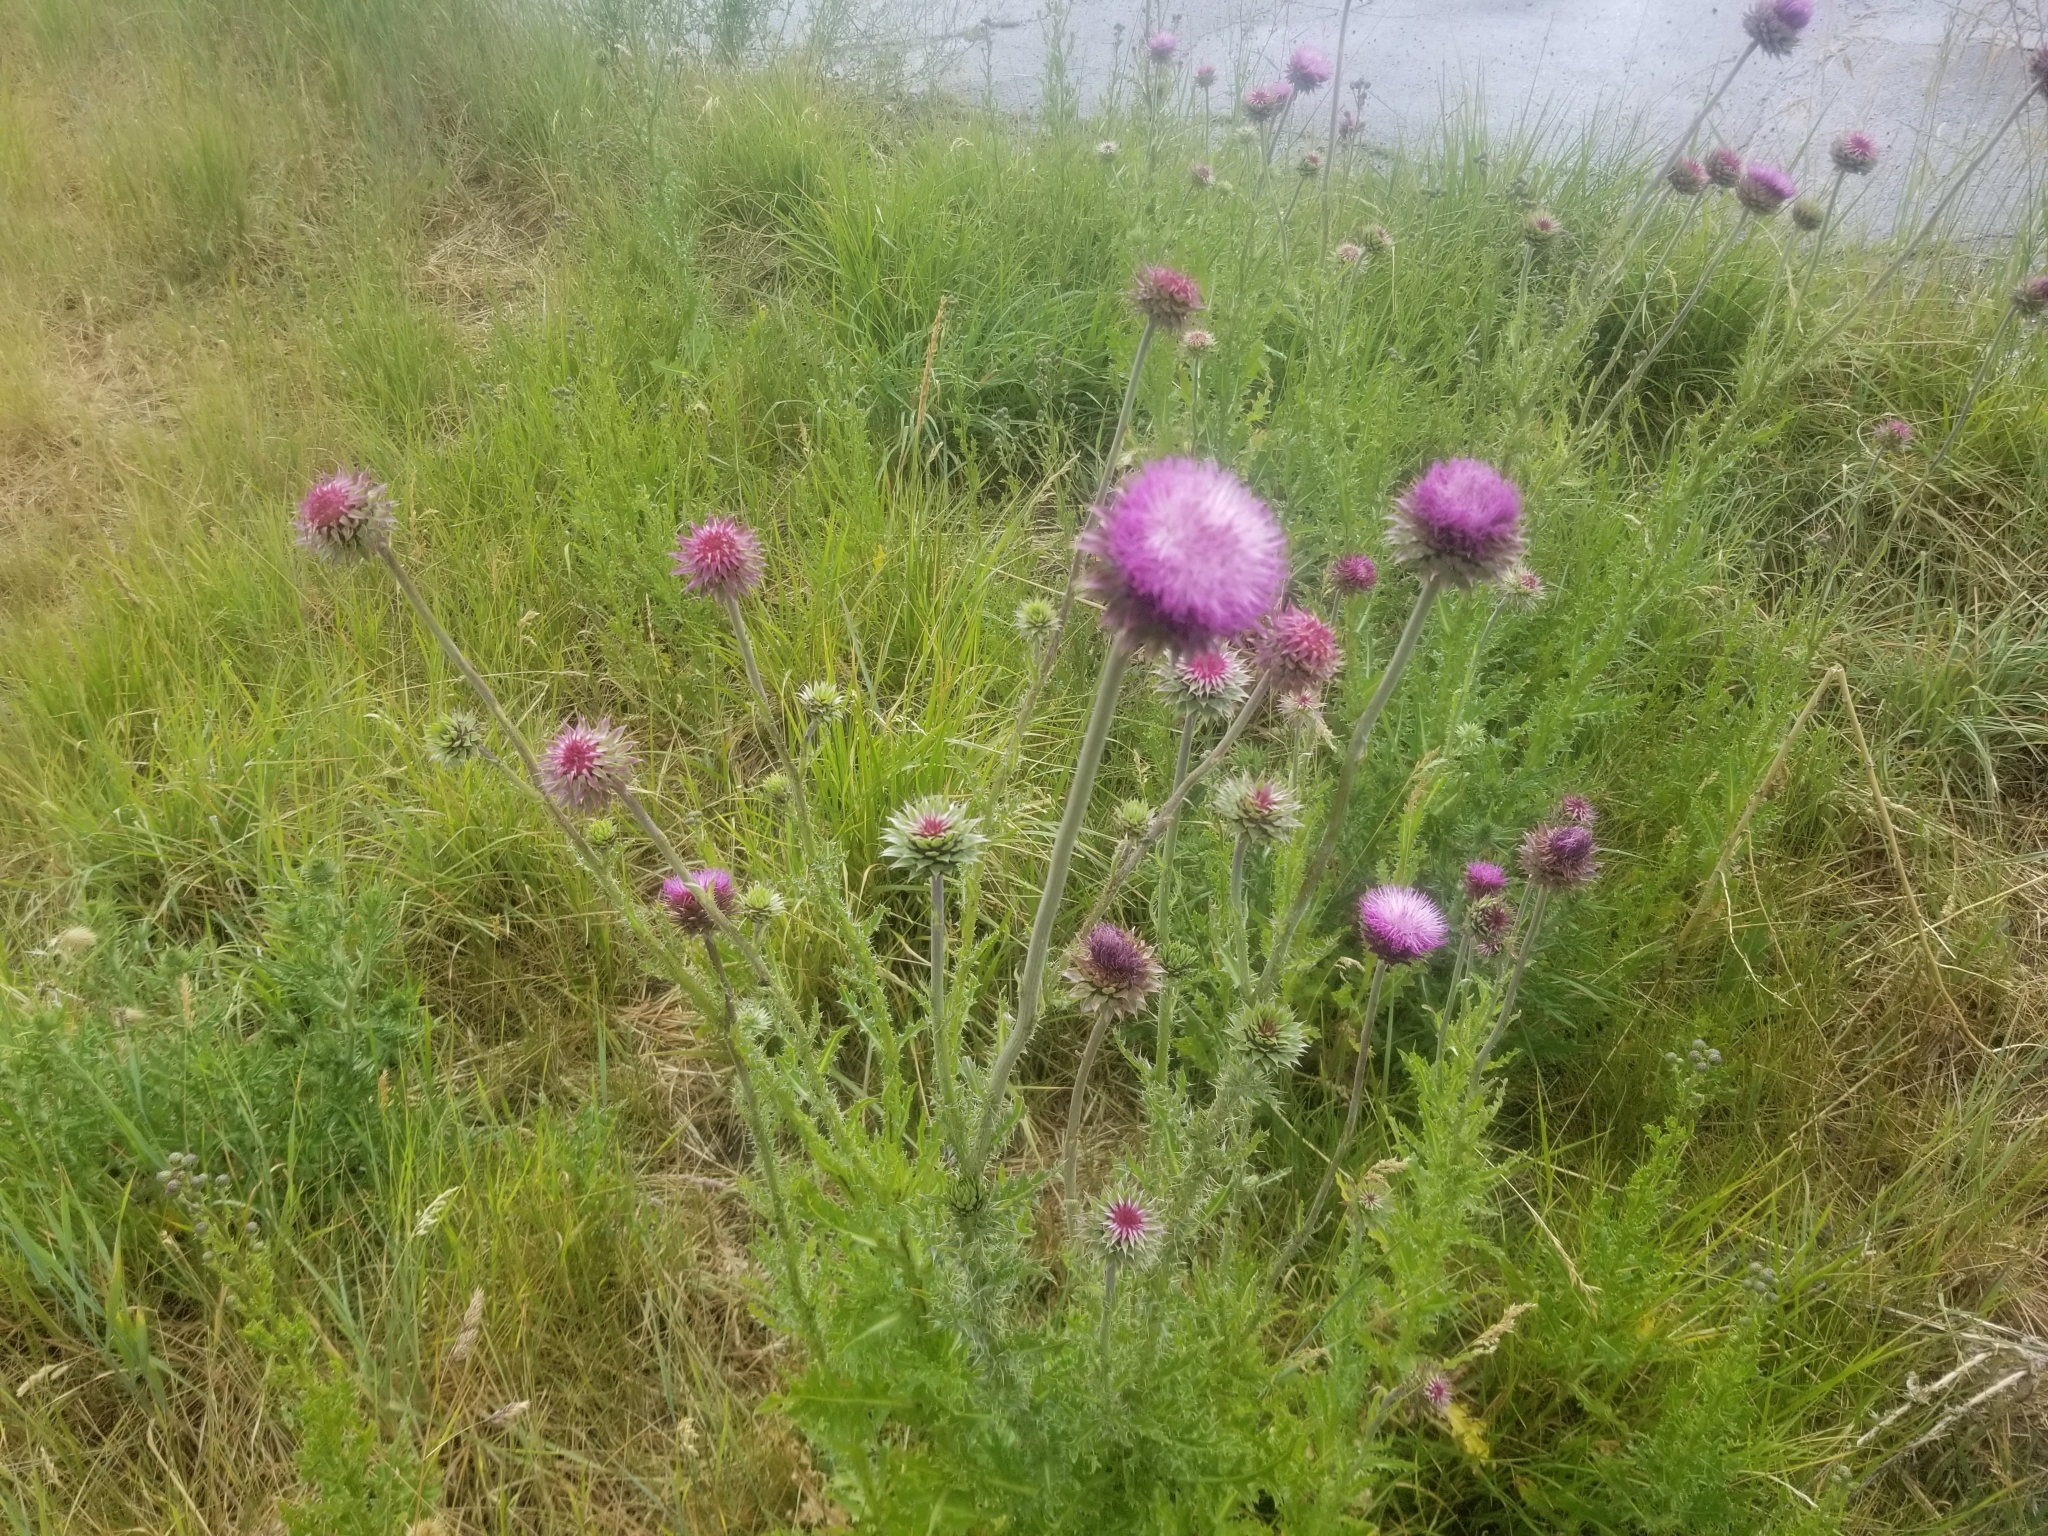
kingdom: Plantae
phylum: Tracheophyta
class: Magnoliopsida
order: Asterales
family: Asteraceae
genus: Carduus
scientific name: Carduus nutans
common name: Musk thistle
